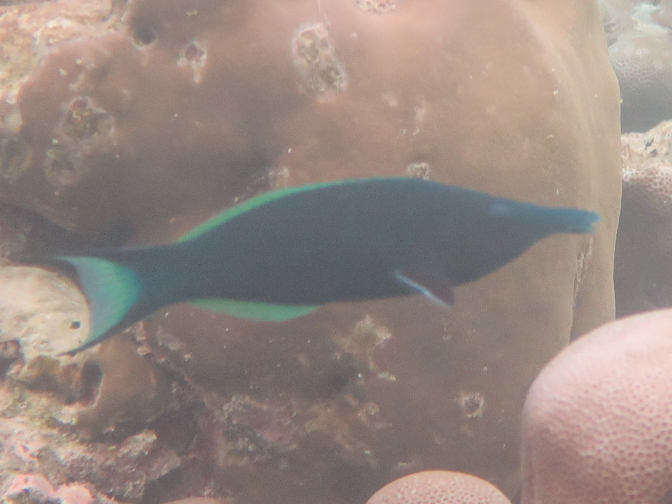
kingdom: Animalia
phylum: Chordata
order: Perciformes
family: Labridae
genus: Gomphosus
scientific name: Gomphosus caeruleus
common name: Bird wrasse
